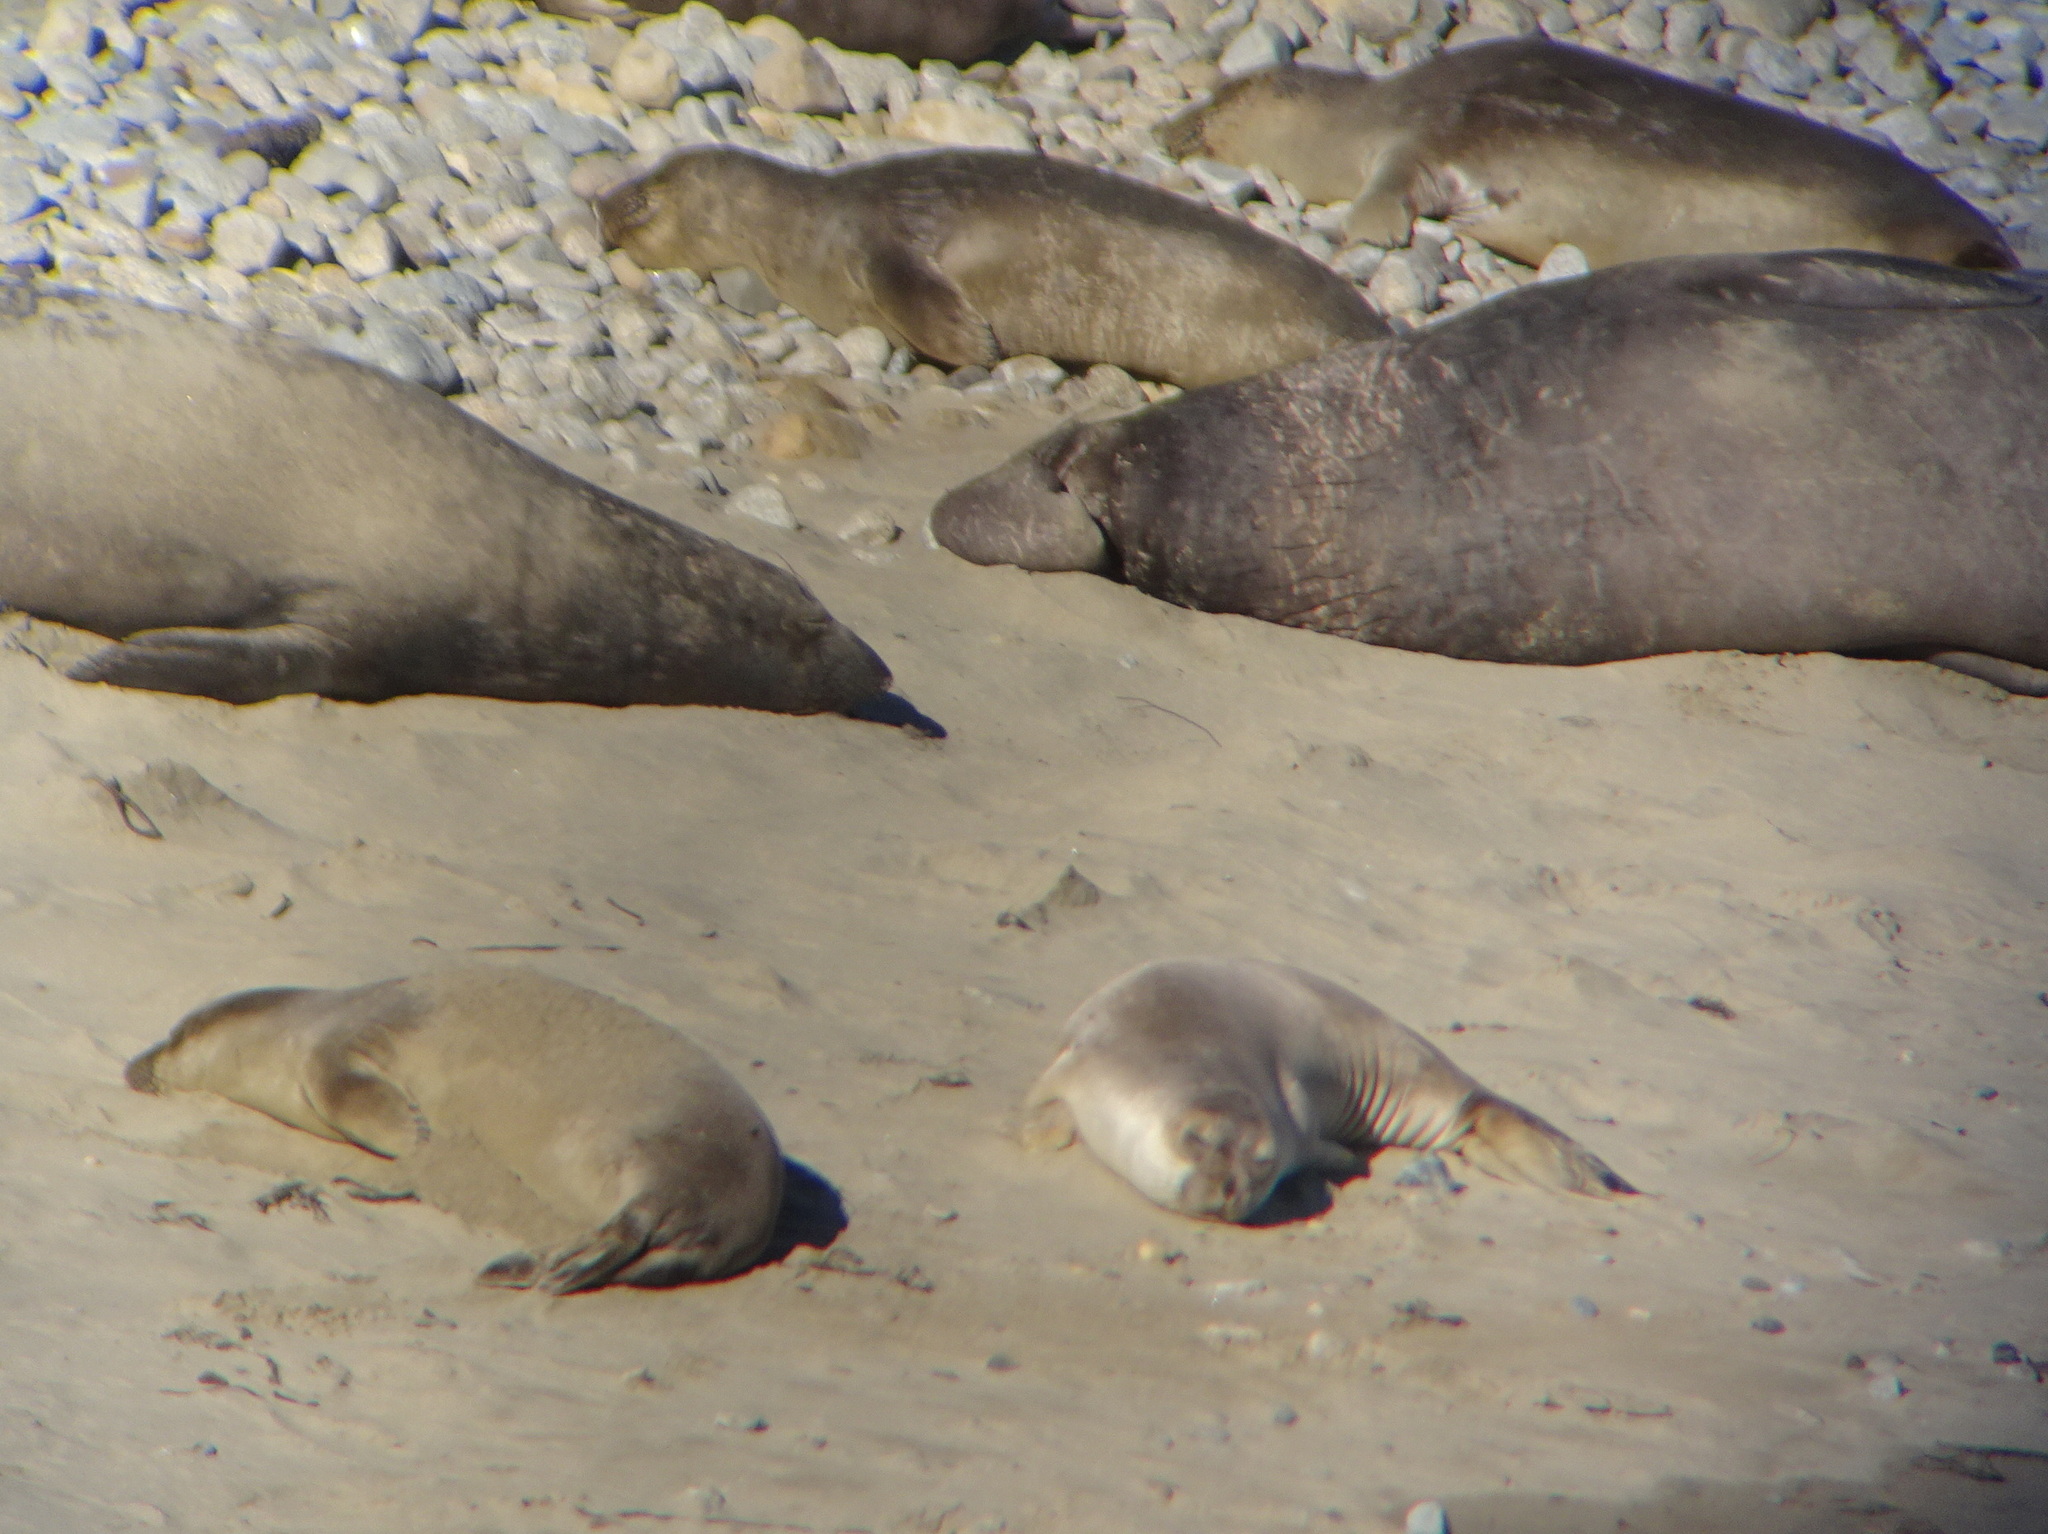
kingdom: Animalia
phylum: Chordata
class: Mammalia
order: Carnivora
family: Phocidae
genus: Mirounga
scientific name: Mirounga angustirostris
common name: Northern elephant seal
